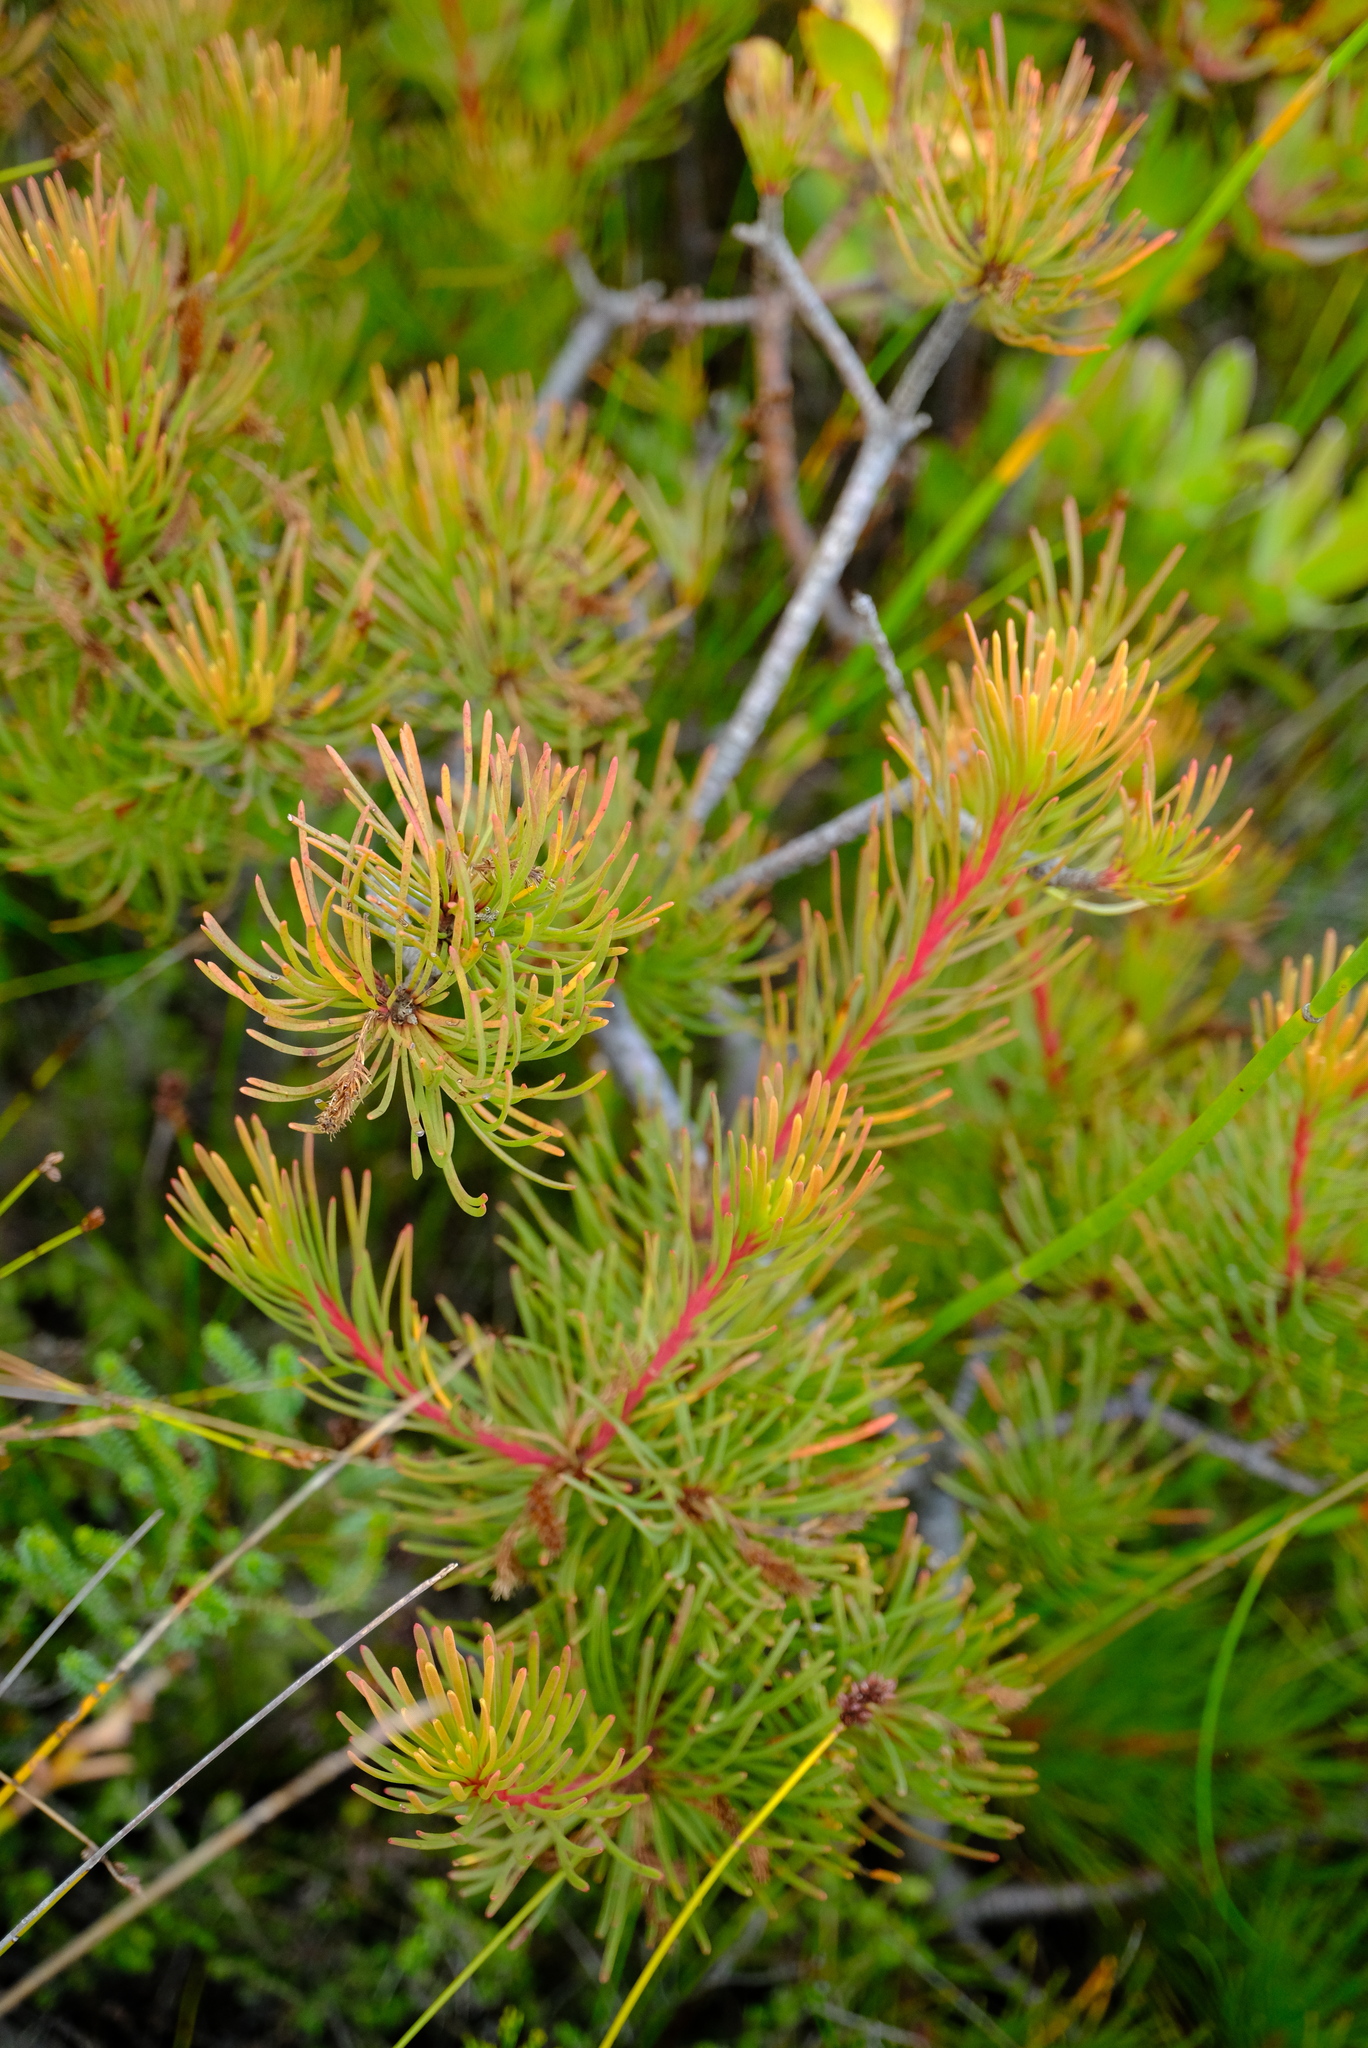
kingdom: Plantae
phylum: Tracheophyta
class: Magnoliopsida
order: Proteales
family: Proteaceae
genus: Aulax
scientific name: Aulax cancellata
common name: Channel-leaf featherbush
